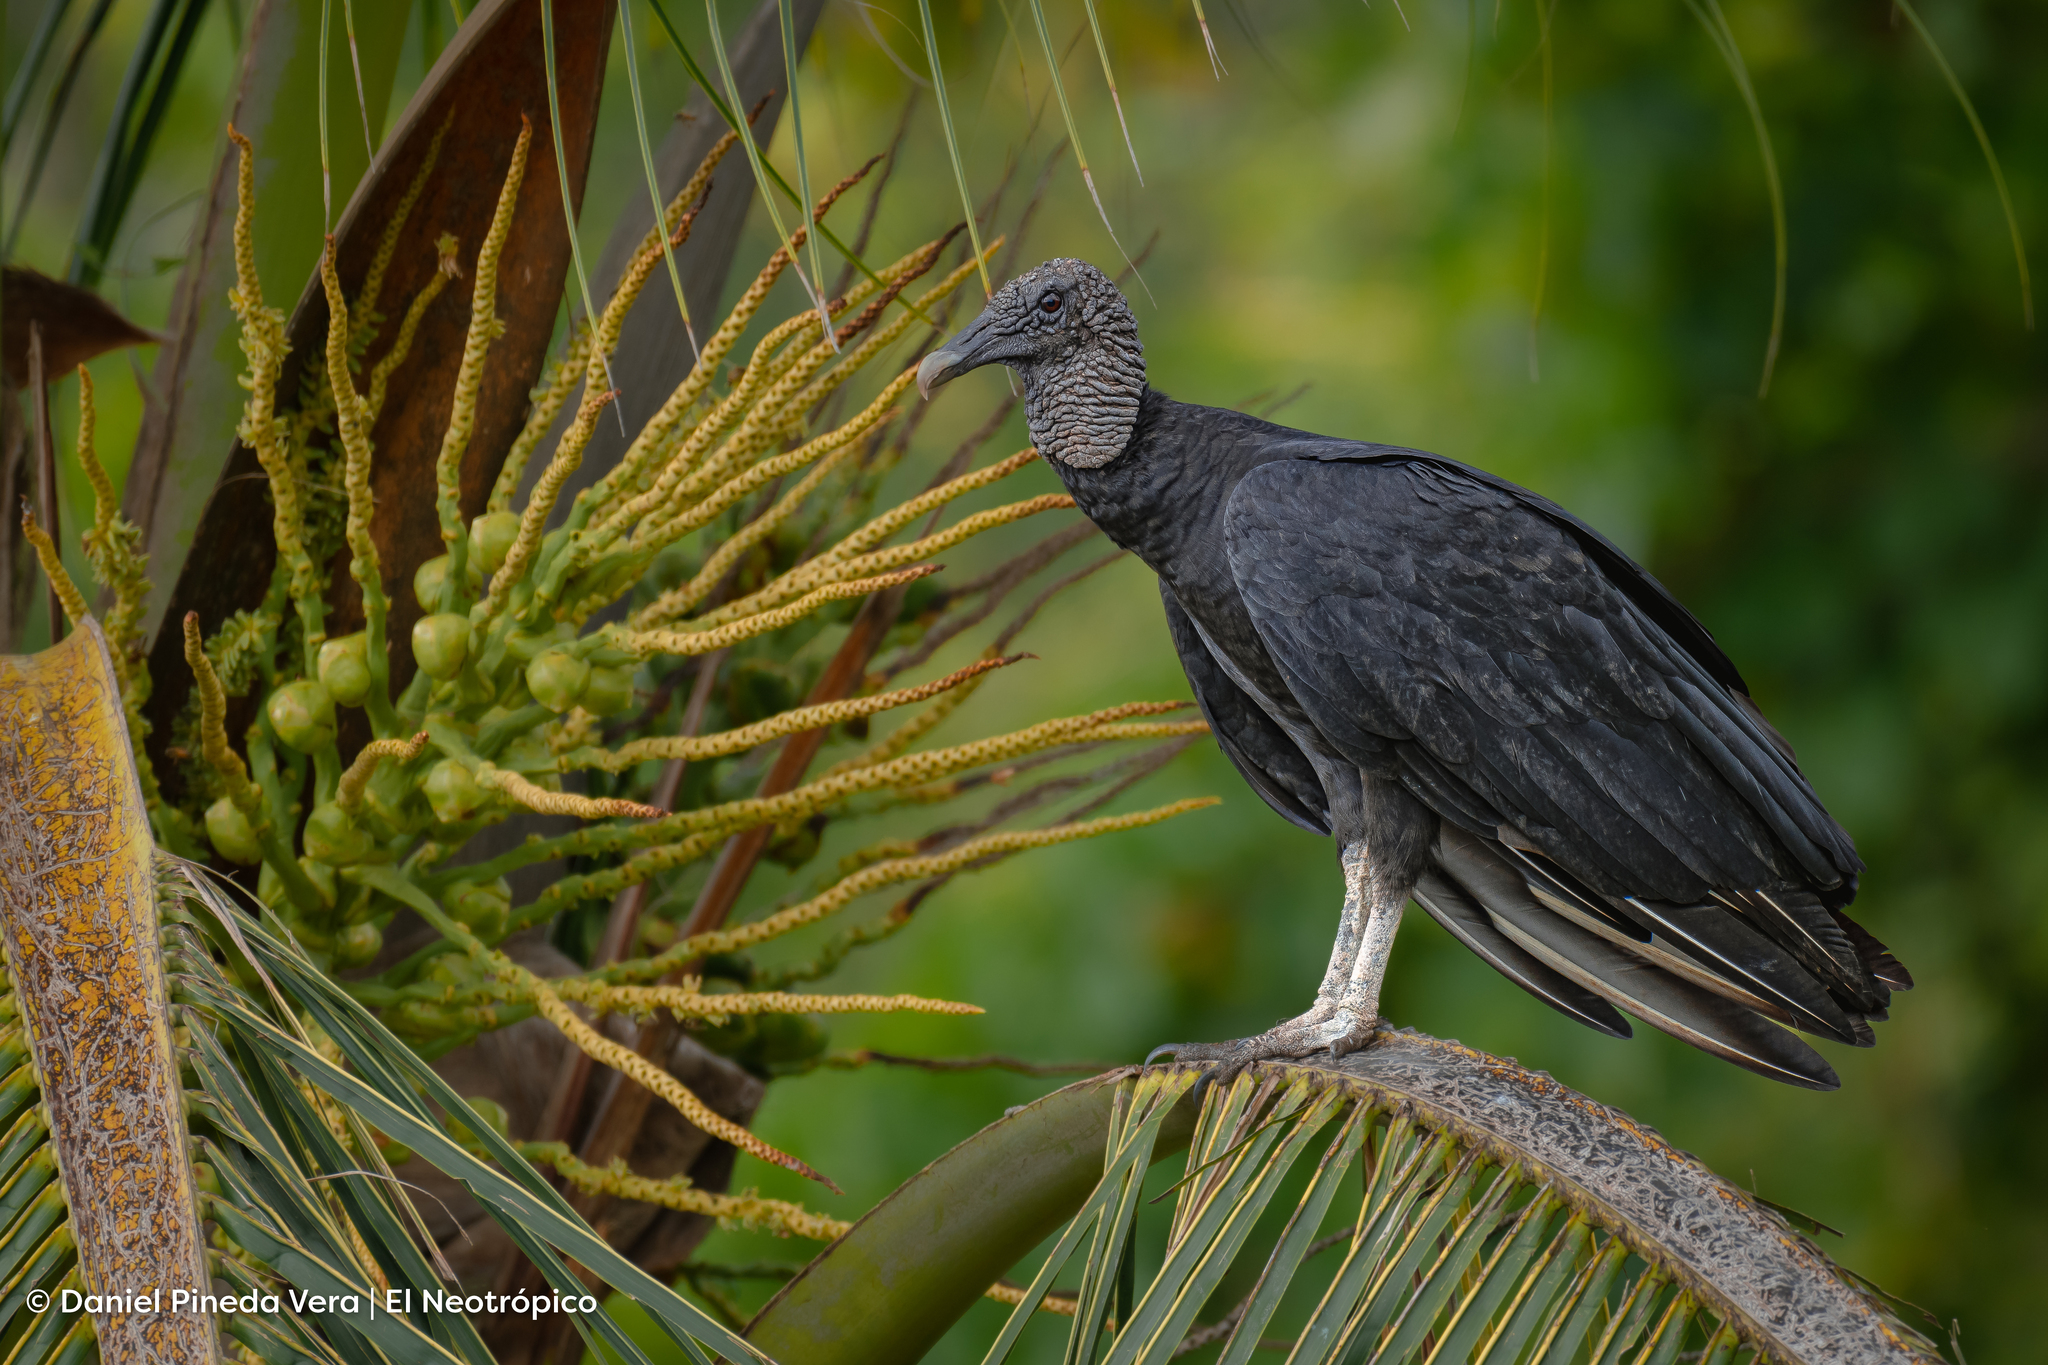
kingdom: Animalia
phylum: Chordata
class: Aves
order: Accipitriformes
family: Cathartidae
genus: Coragyps
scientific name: Coragyps atratus
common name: Black vulture
